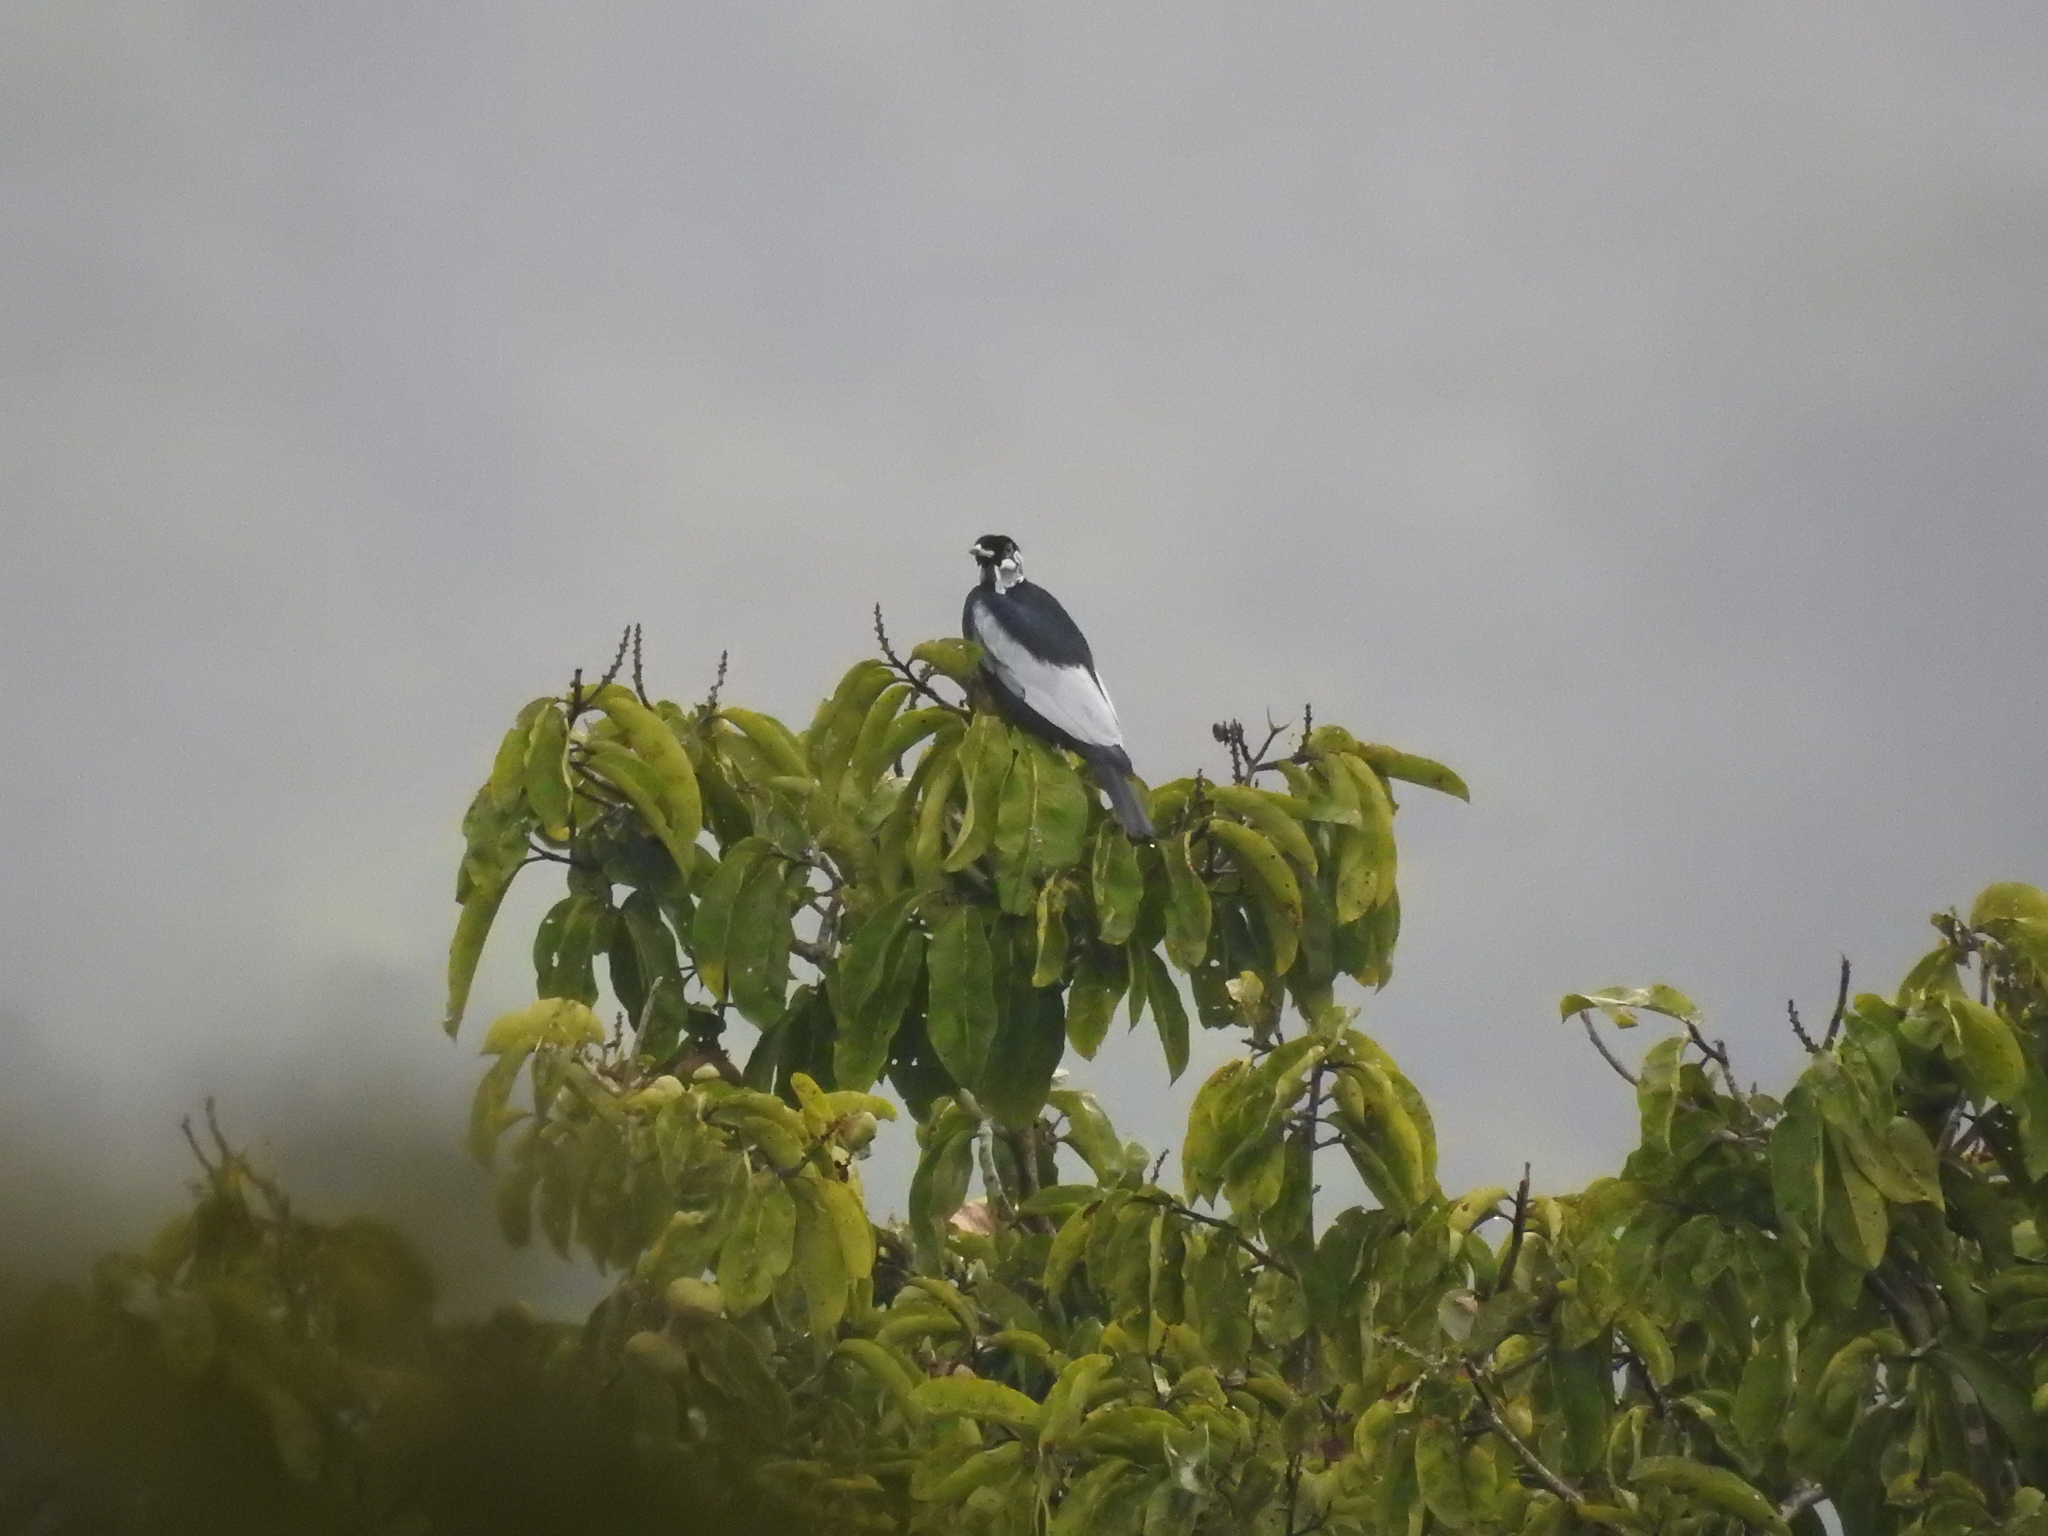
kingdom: Animalia
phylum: Chordata
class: Aves
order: Passeriformes
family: Cotingidae
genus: Gymnoderus
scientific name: Gymnoderus foetidus
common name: Bare-necked fruitcrow
